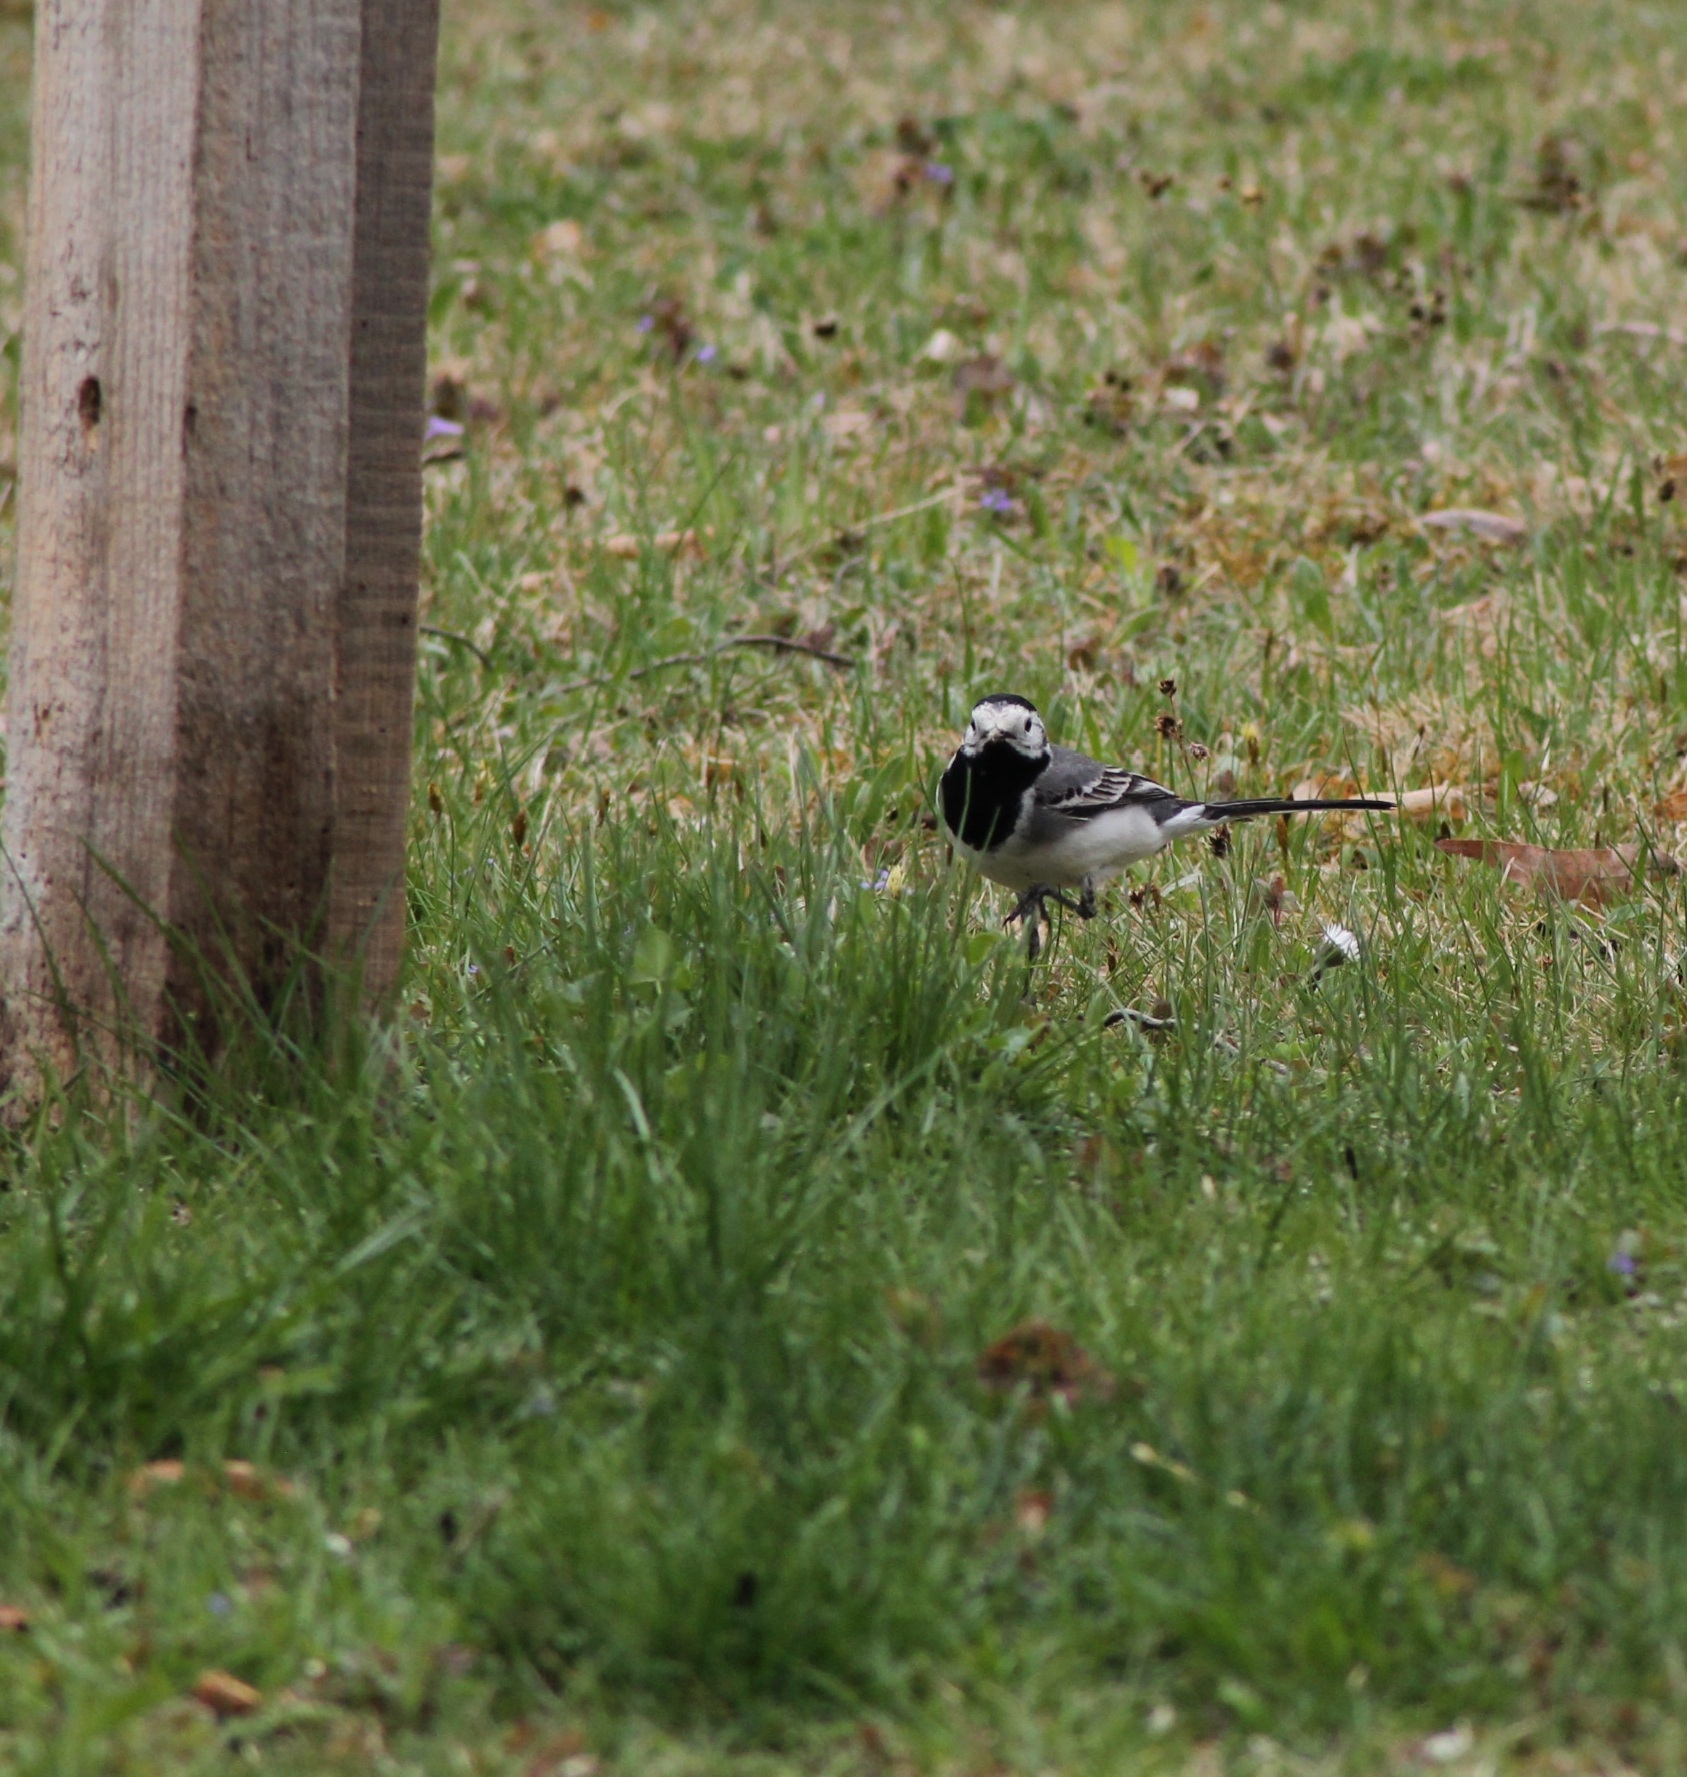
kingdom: Animalia
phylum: Chordata
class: Aves
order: Passeriformes
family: Motacillidae
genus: Motacilla
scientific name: Motacilla alba
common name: White wagtail
